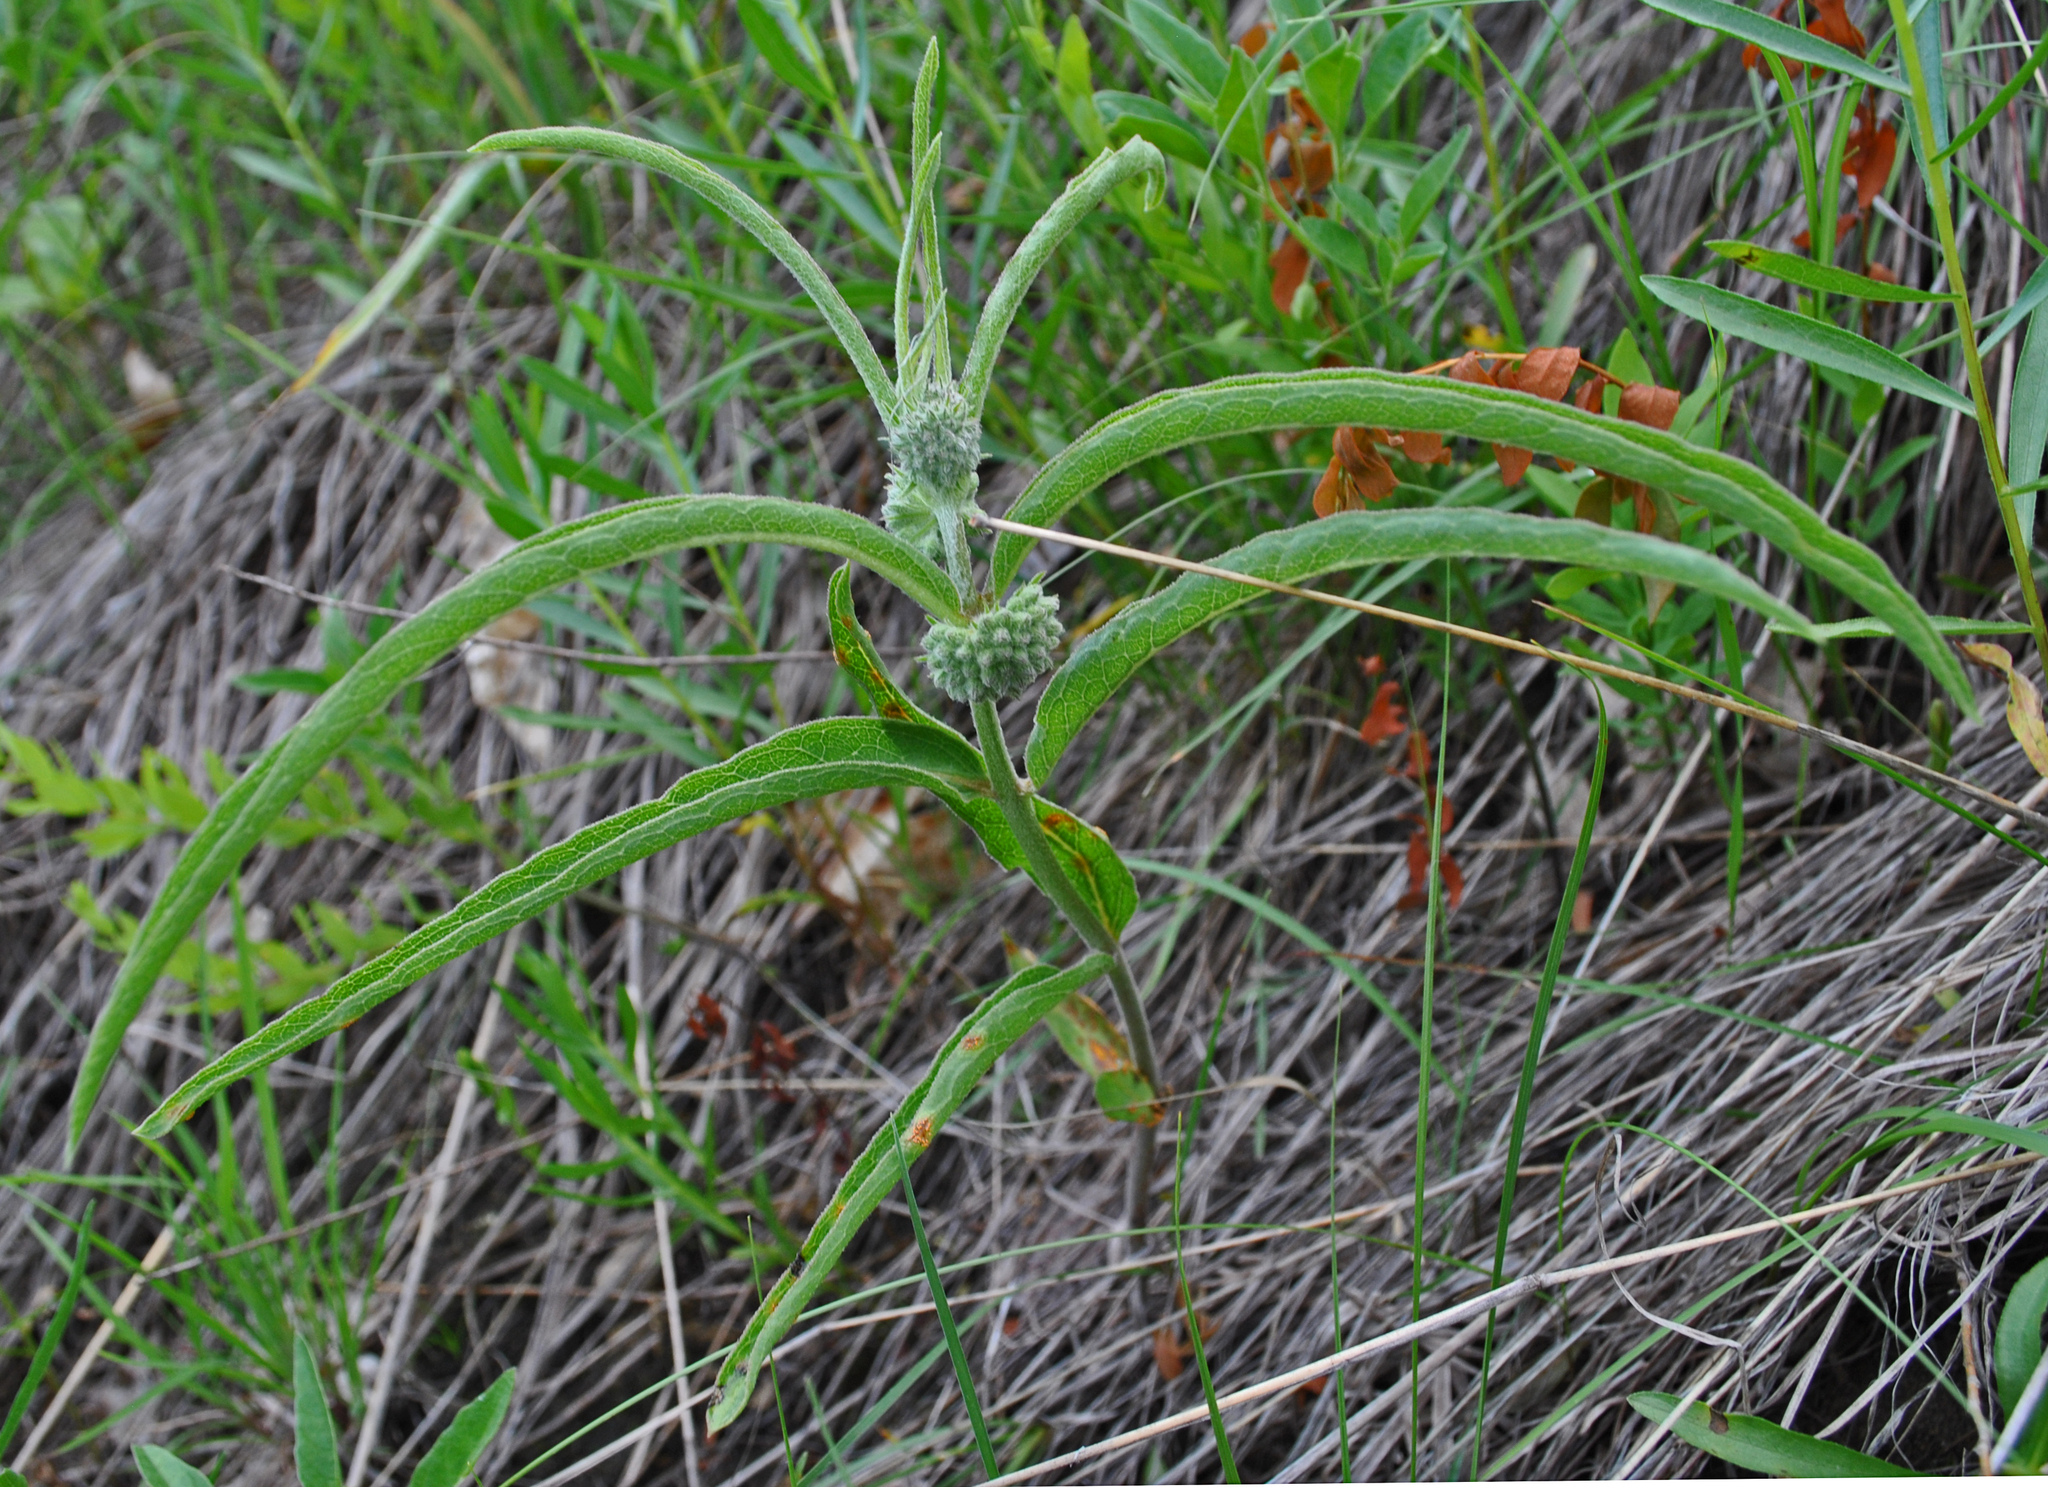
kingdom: Plantae
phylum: Tracheophyta
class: Magnoliopsida
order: Gentianales
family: Apocynaceae
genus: Asclepias
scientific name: Asclepias viridiflora
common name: Green comet milkweed
